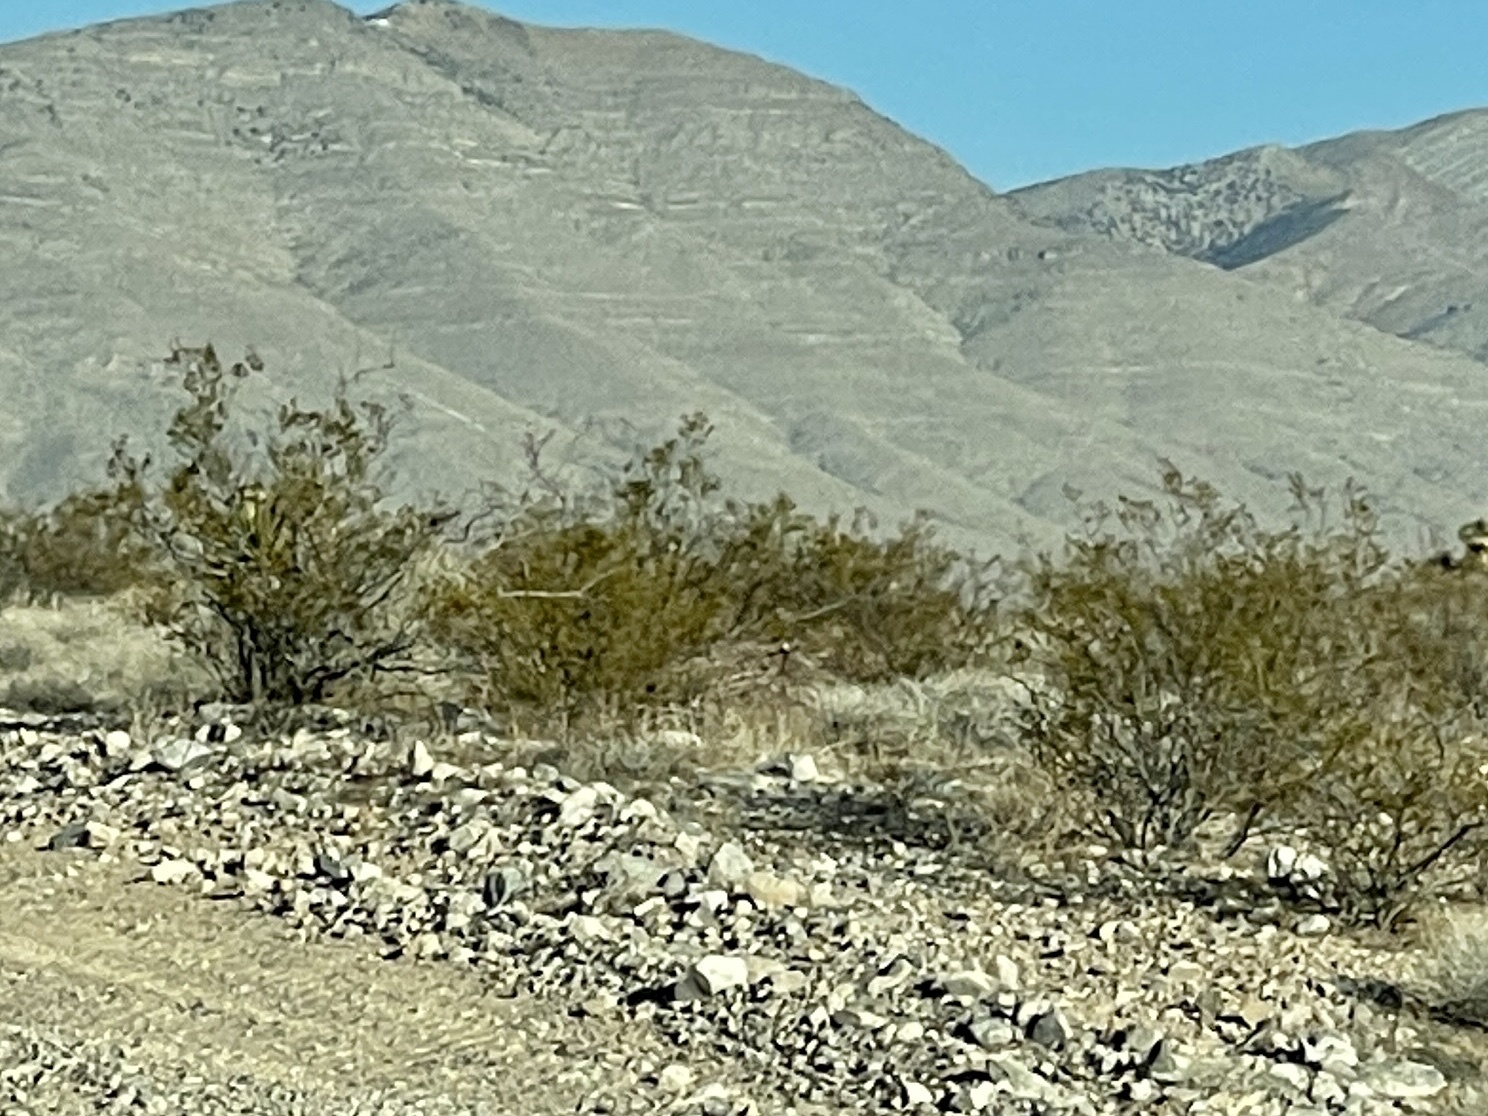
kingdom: Plantae
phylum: Tracheophyta
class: Magnoliopsida
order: Zygophyllales
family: Zygophyllaceae
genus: Larrea
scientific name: Larrea tridentata
